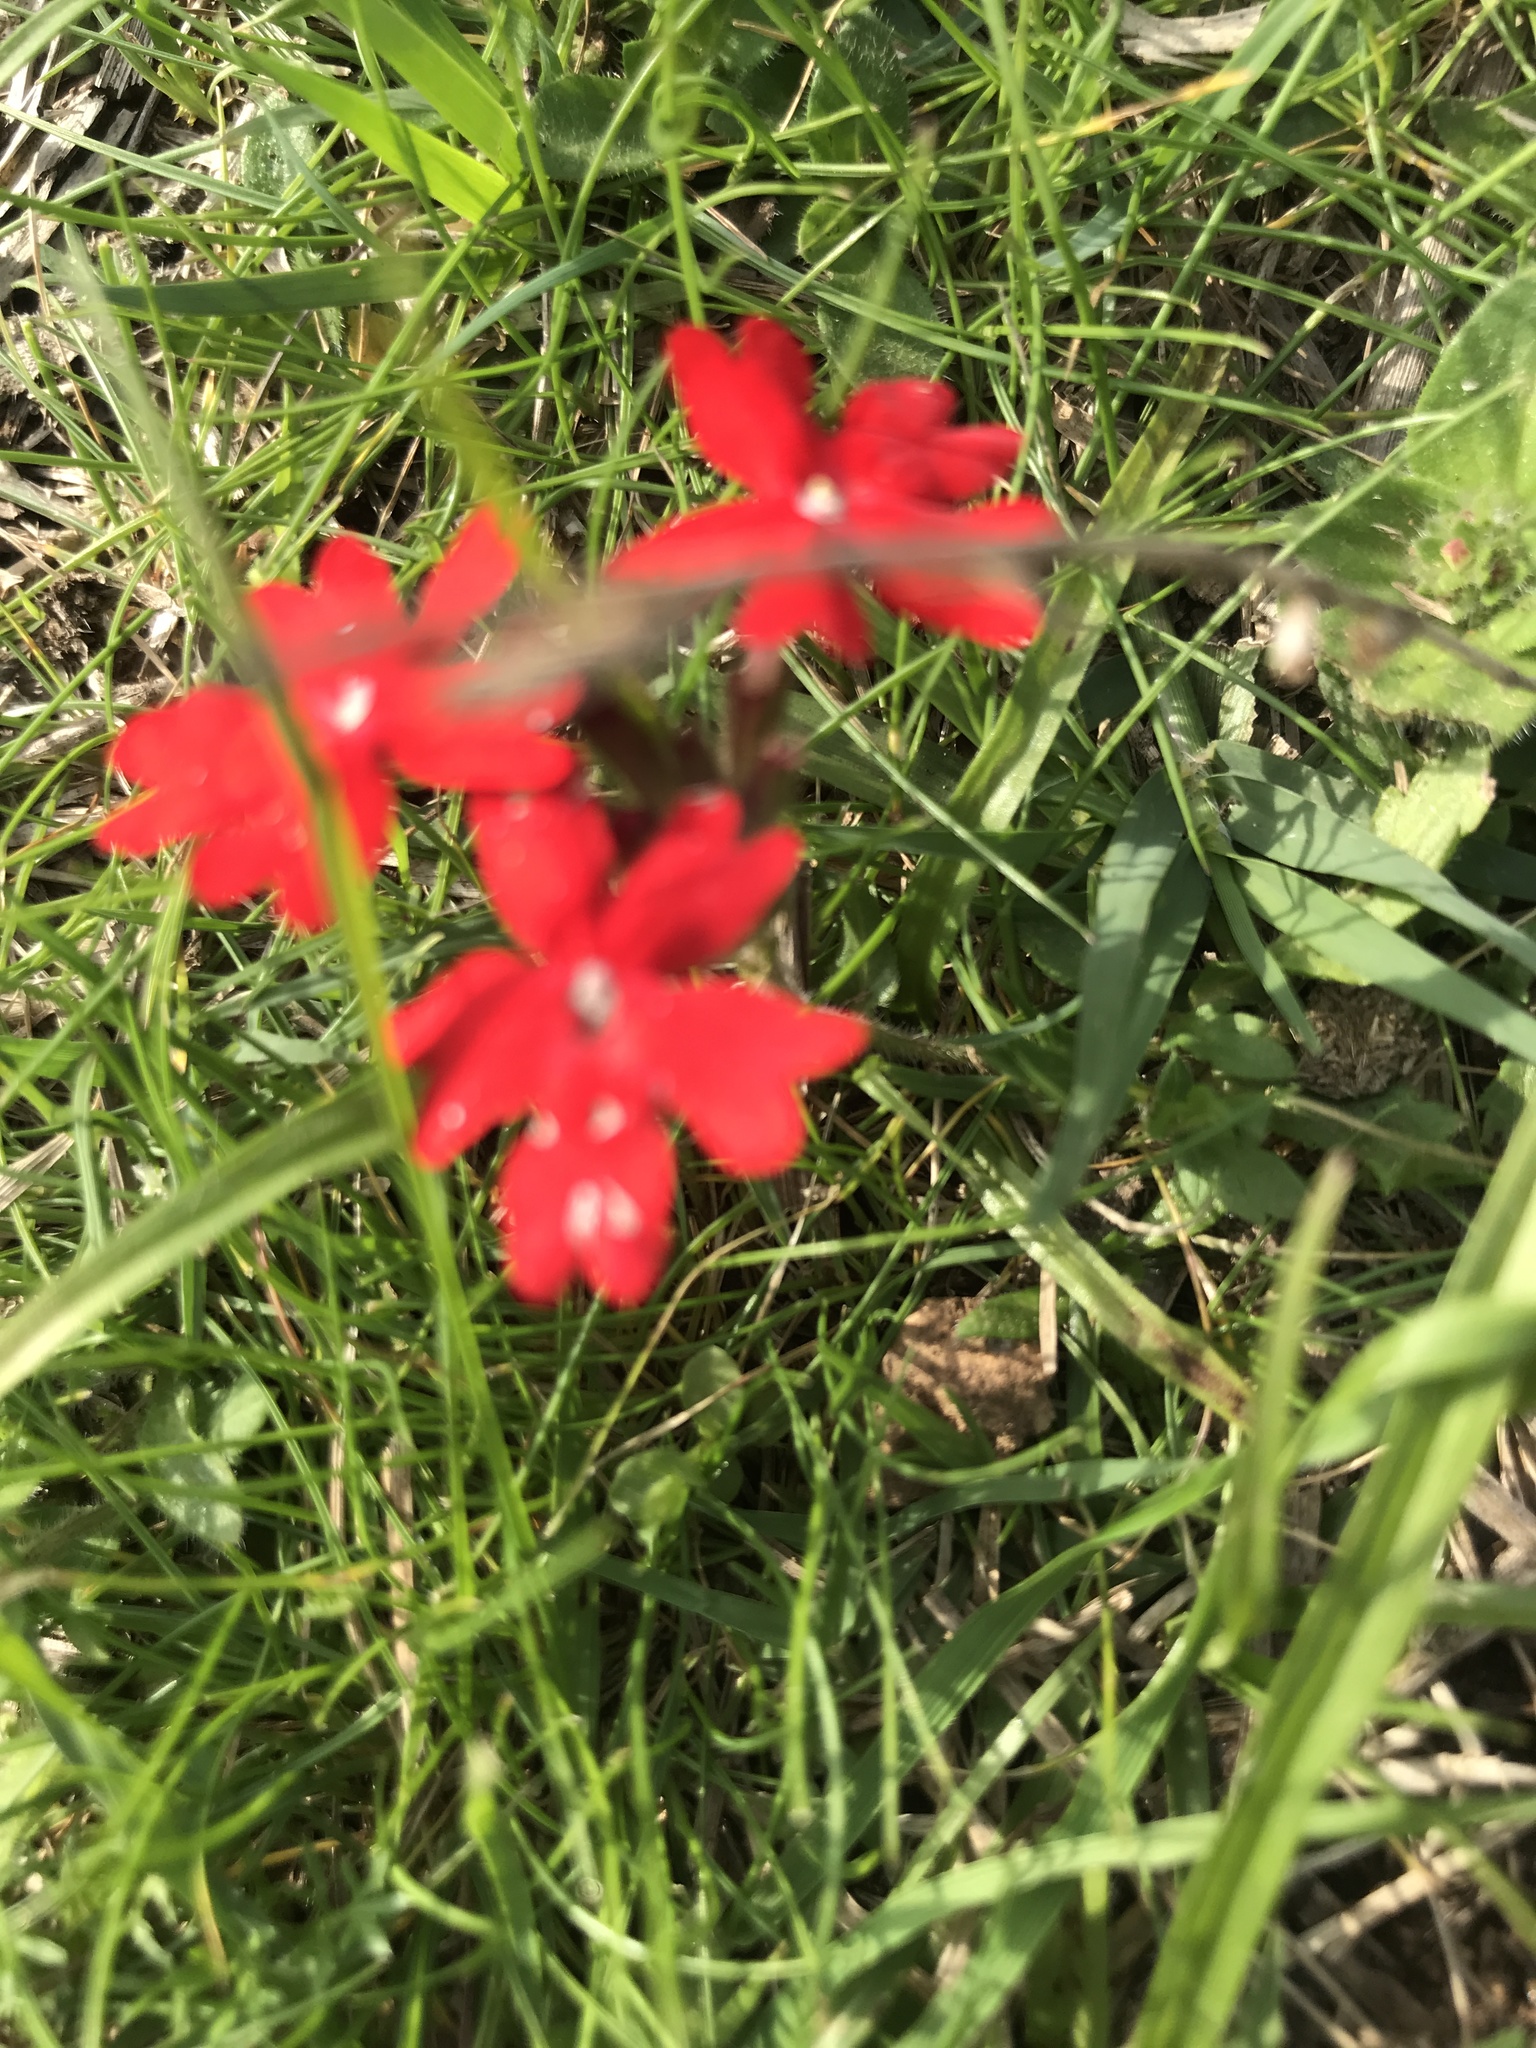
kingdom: Plantae
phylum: Tracheophyta
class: Magnoliopsida
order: Lamiales
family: Verbenaceae
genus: Verbena
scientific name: Verbena peruviana
